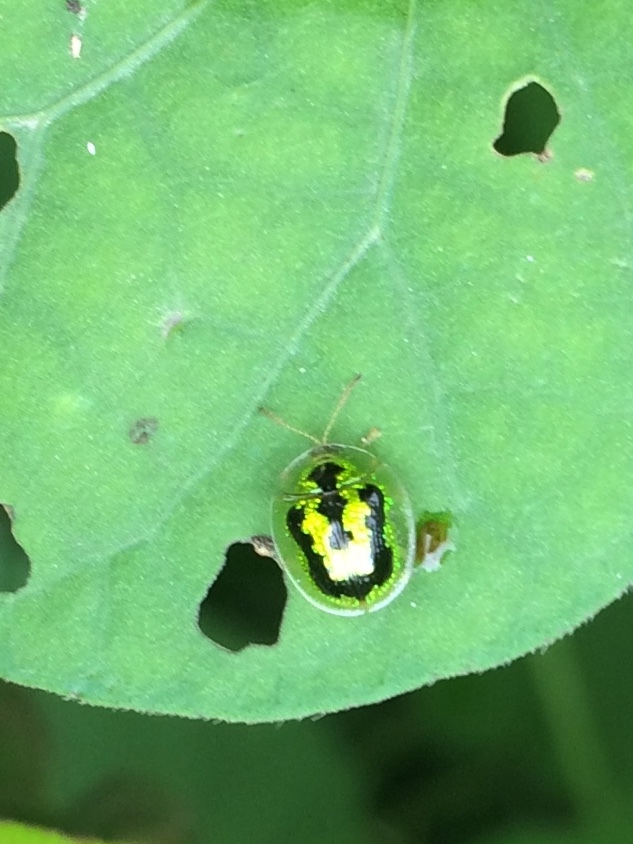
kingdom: Animalia
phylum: Arthropoda
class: Insecta
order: Coleoptera
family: Chrysomelidae
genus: Cassida
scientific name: Cassida circumdata
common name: Tortoise beetle
